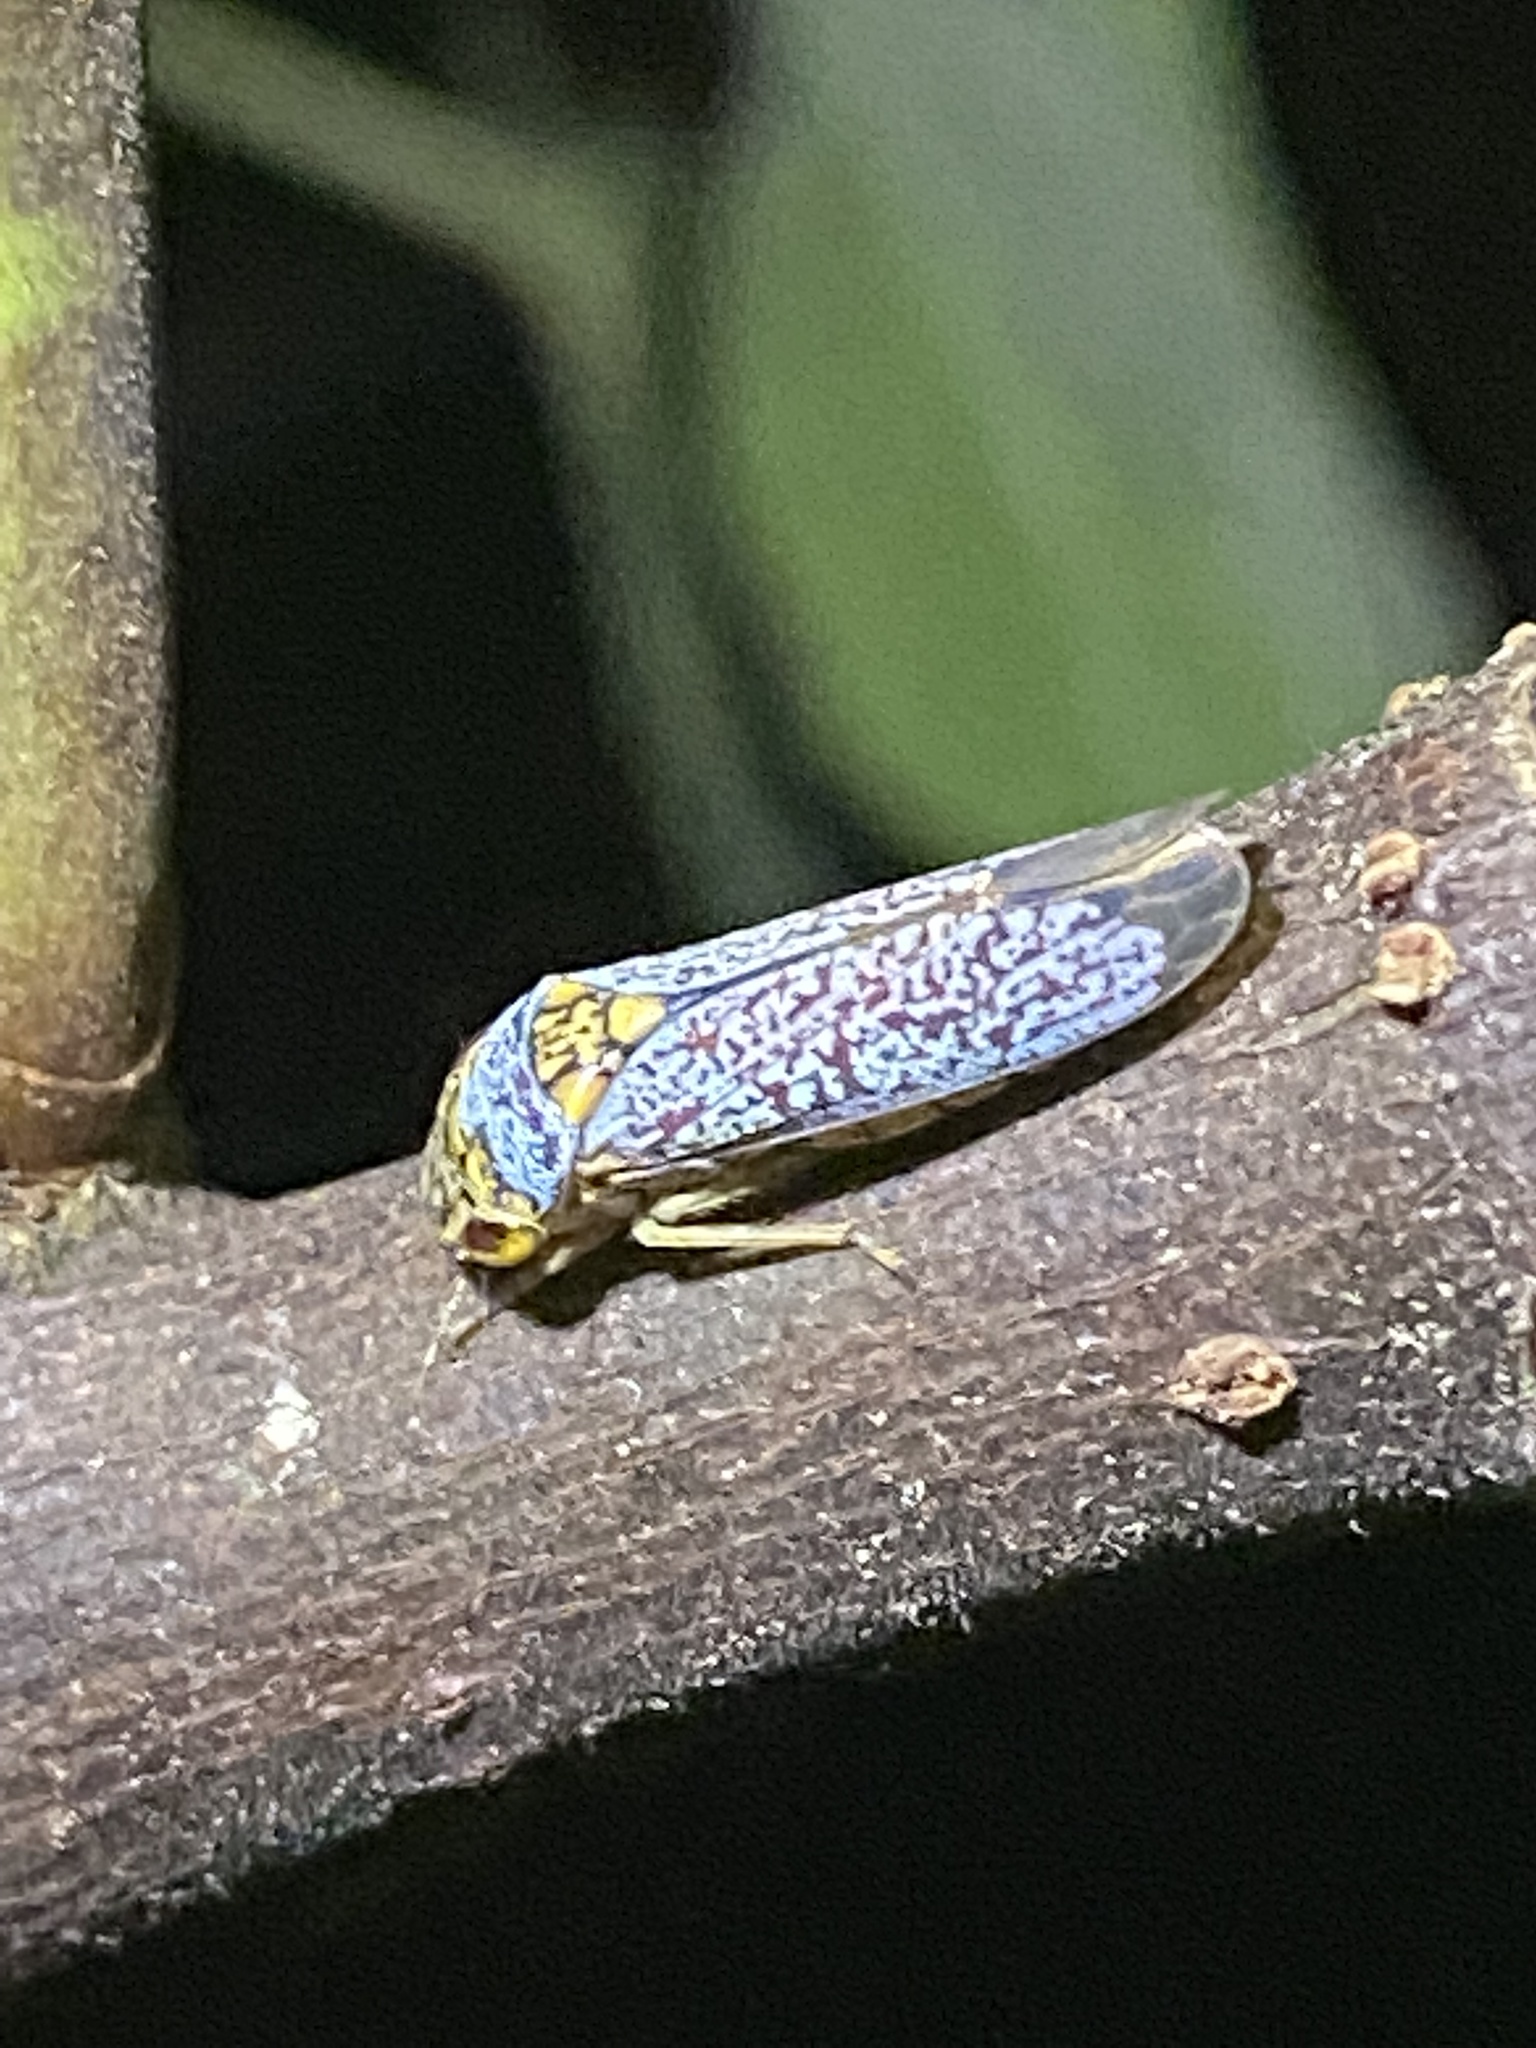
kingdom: Animalia
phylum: Arthropoda
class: Insecta
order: Hemiptera
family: Cicadellidae
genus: Oncometopia
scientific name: Oncometopia orbona
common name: Broad-headed sharpshooter
